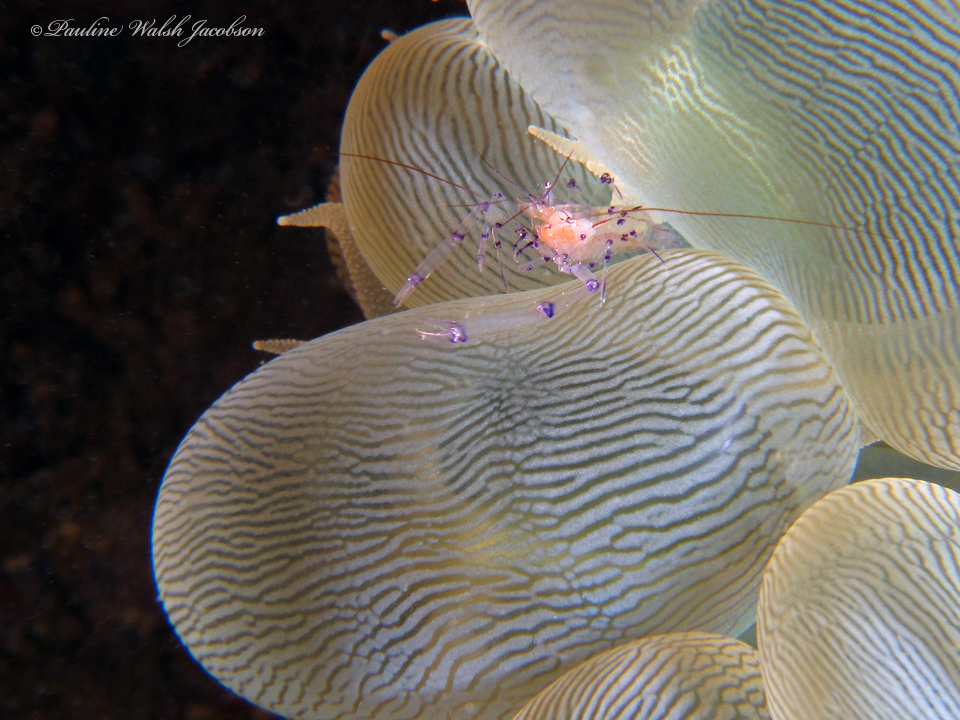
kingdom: Animalia
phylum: Arthropoda
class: Malacostraca
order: Decapoda
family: Palaemonidae
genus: Vir
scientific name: Vir colemani
